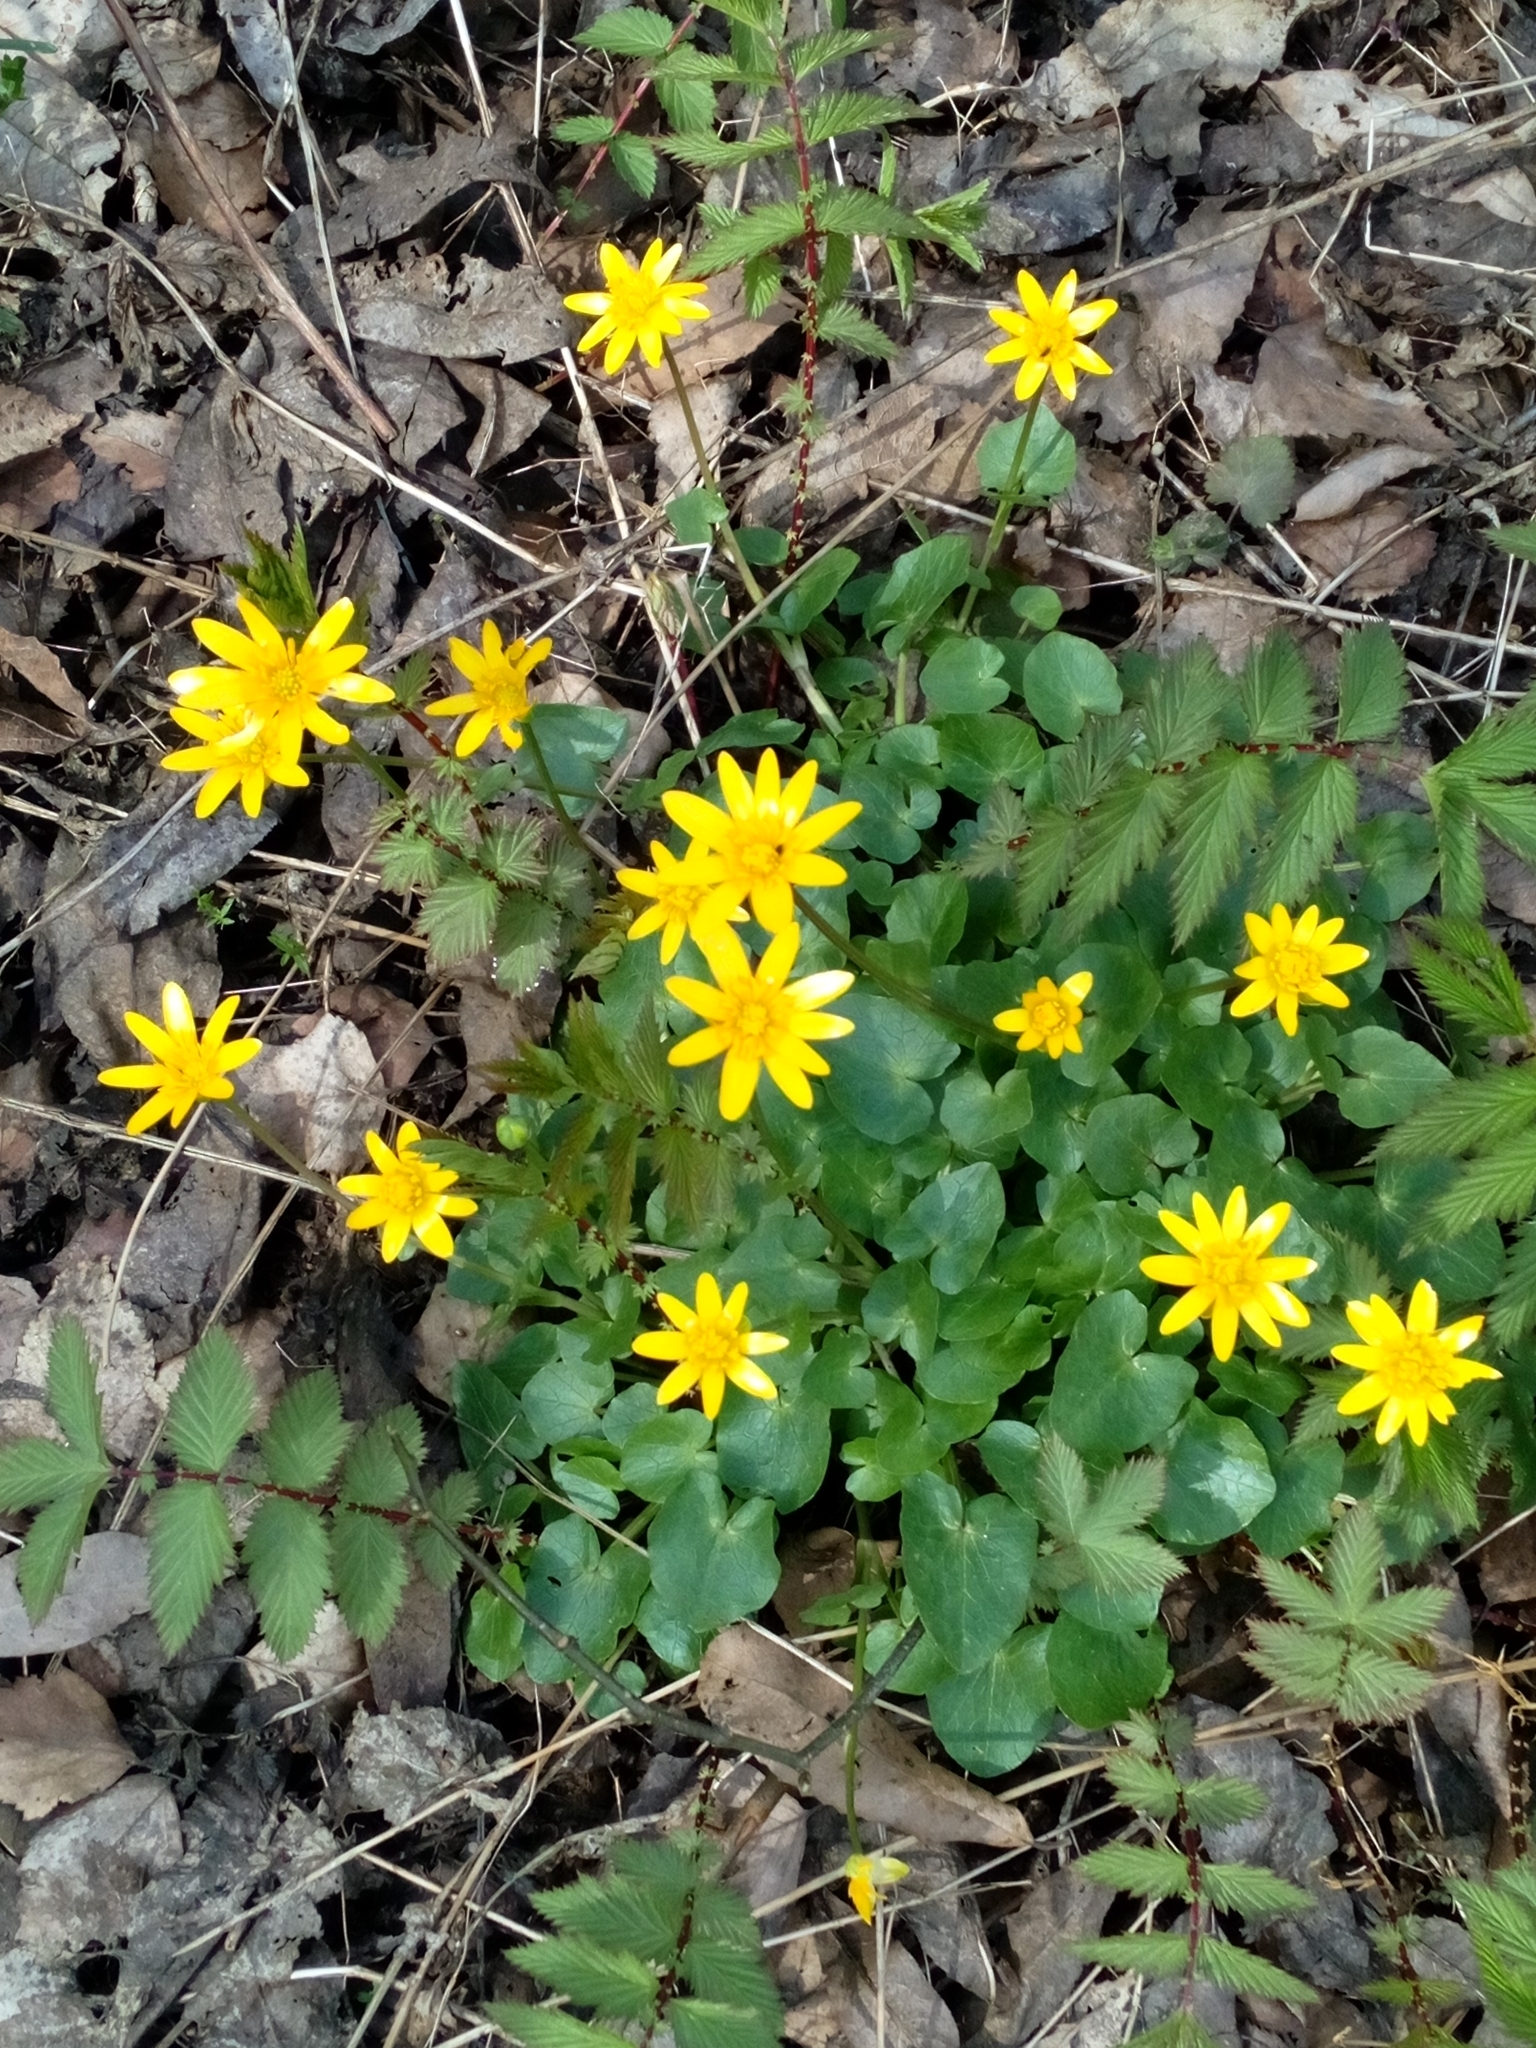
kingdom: Plantae
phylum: Tracheophyta
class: Magnoliopsida
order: Ranunculales
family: Ranunculaceae
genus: Ficaria
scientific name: Ficaria verna
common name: Lesser celandine
